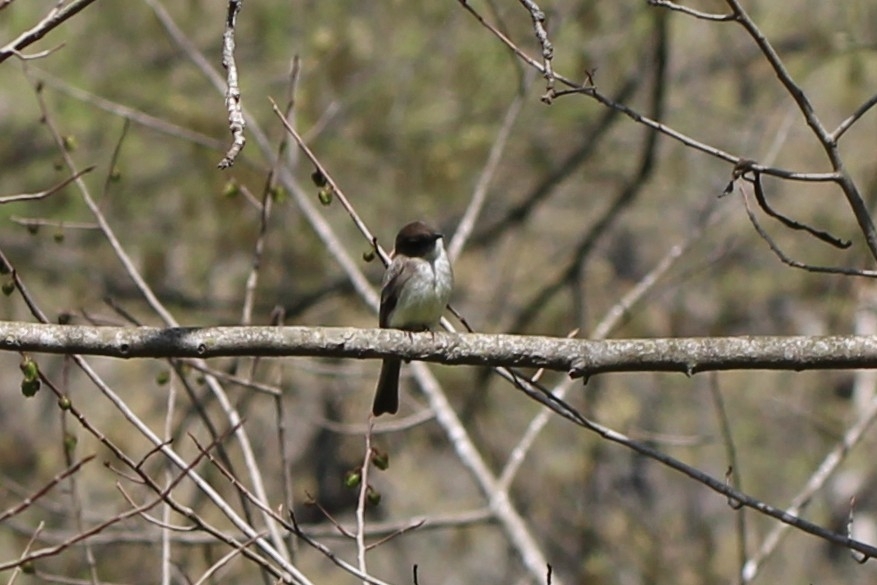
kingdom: Animalia
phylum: Chordata
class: Aves
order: Passeriformes
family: Tyrannidae
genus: Sayornis
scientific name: Sayornis phoebe
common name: Eastern phoebe
